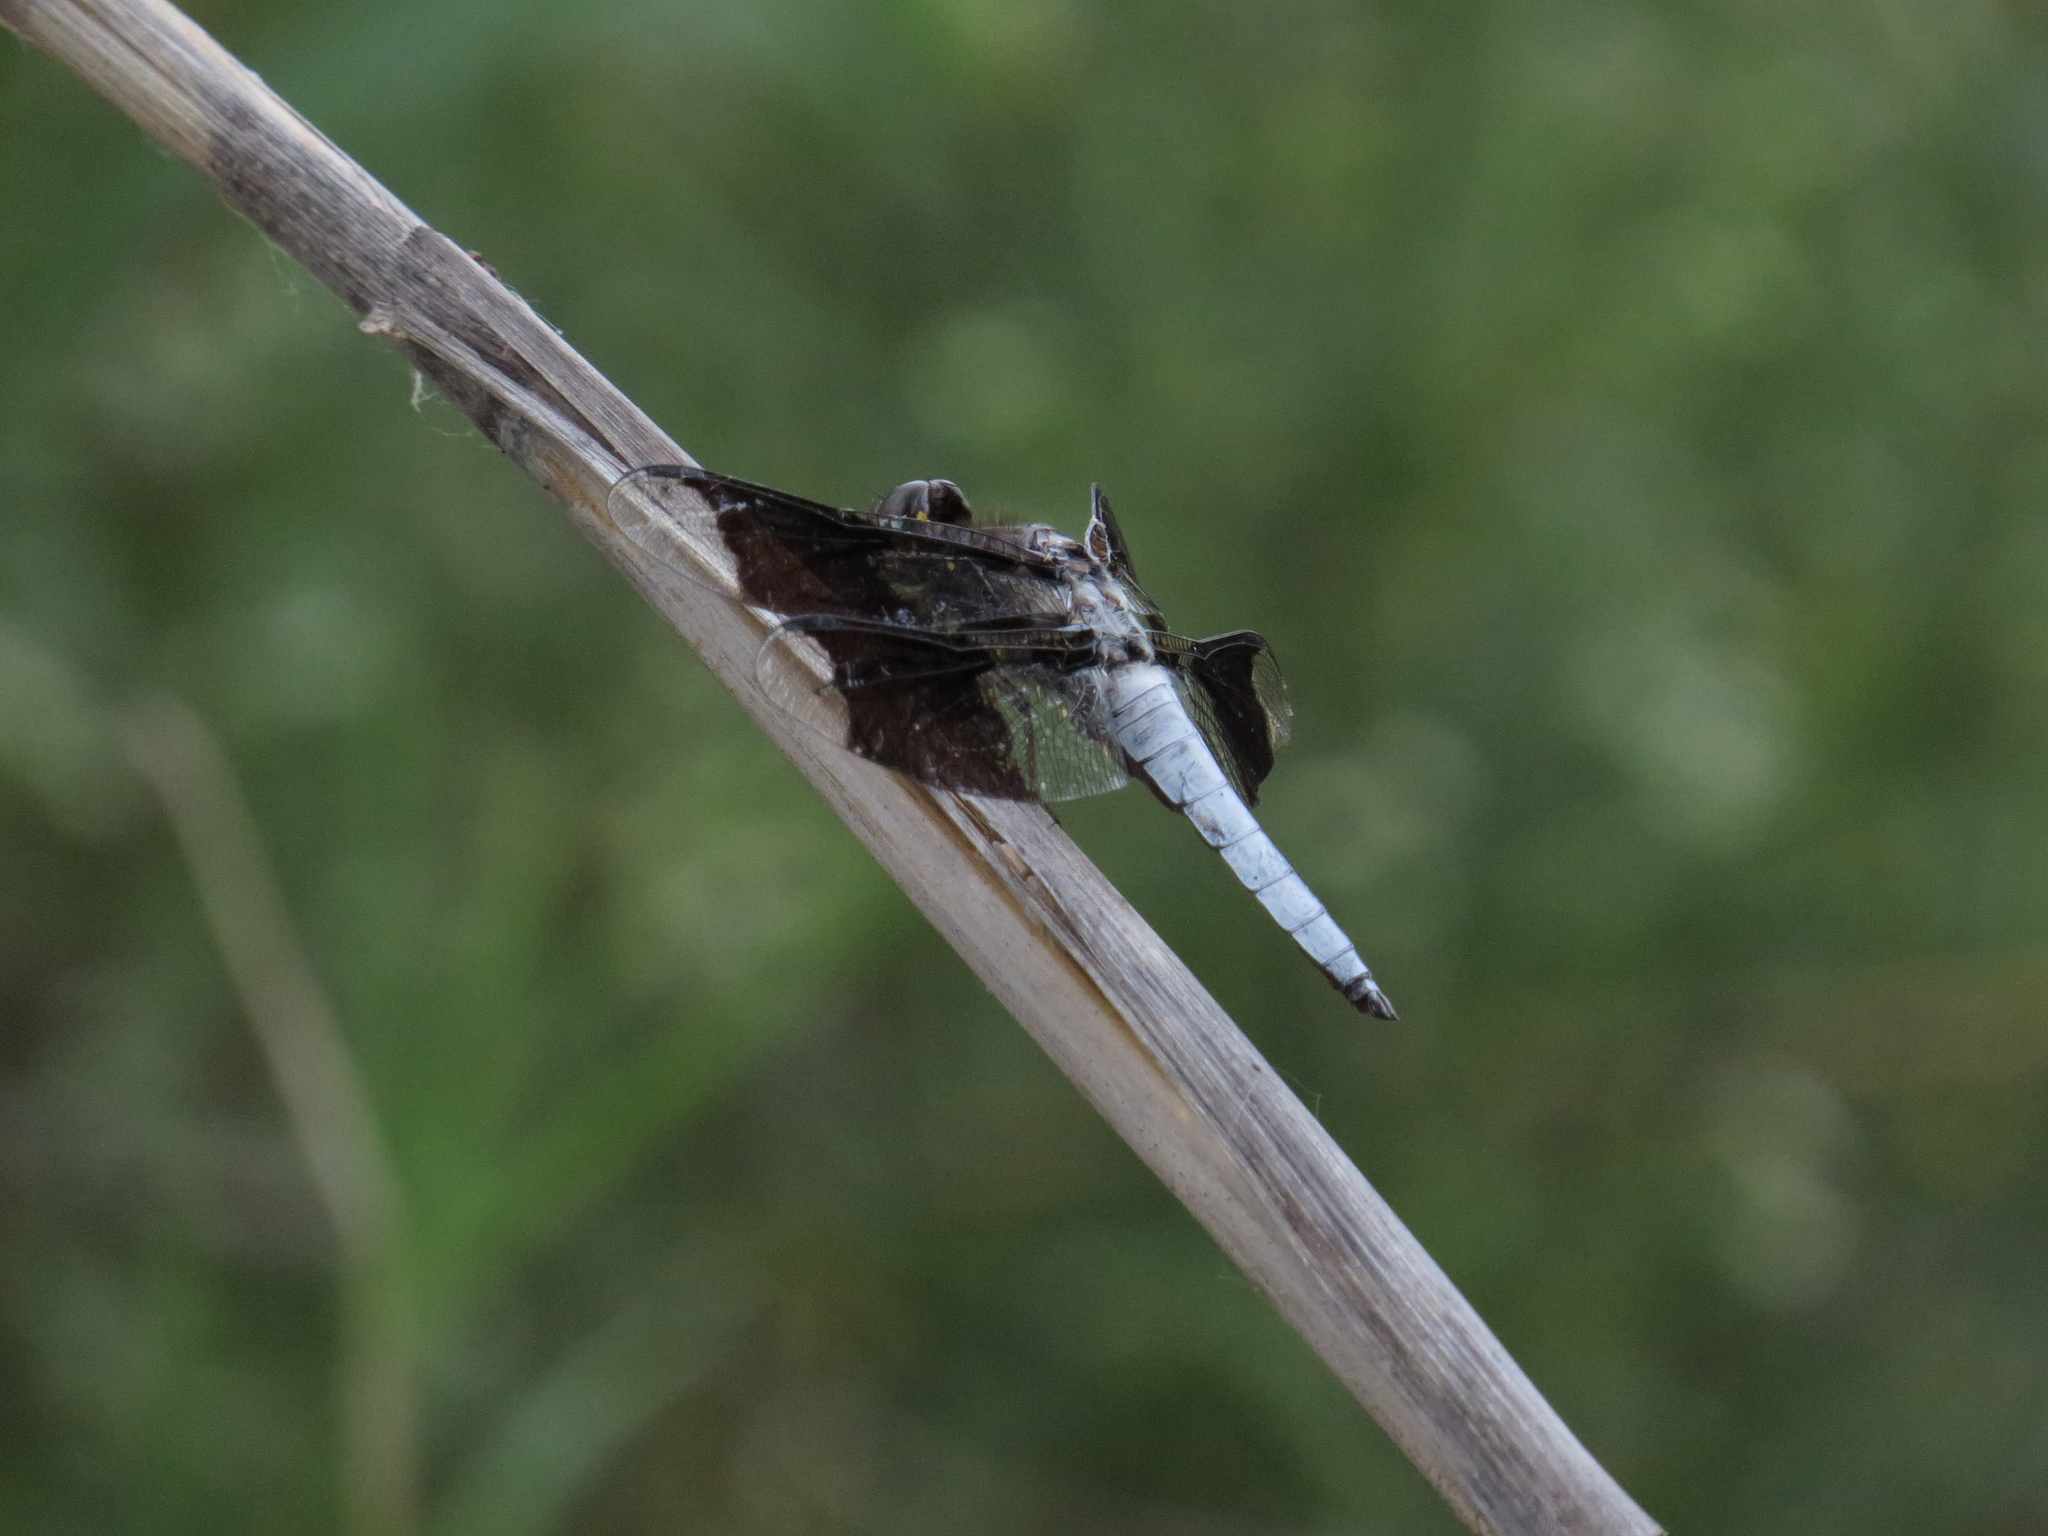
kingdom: Animalia
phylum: Arthropoda
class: Insecta
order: Odonata
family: Libellulidae
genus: Plathemis
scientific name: Plathemis lydia
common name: Common whitetail
